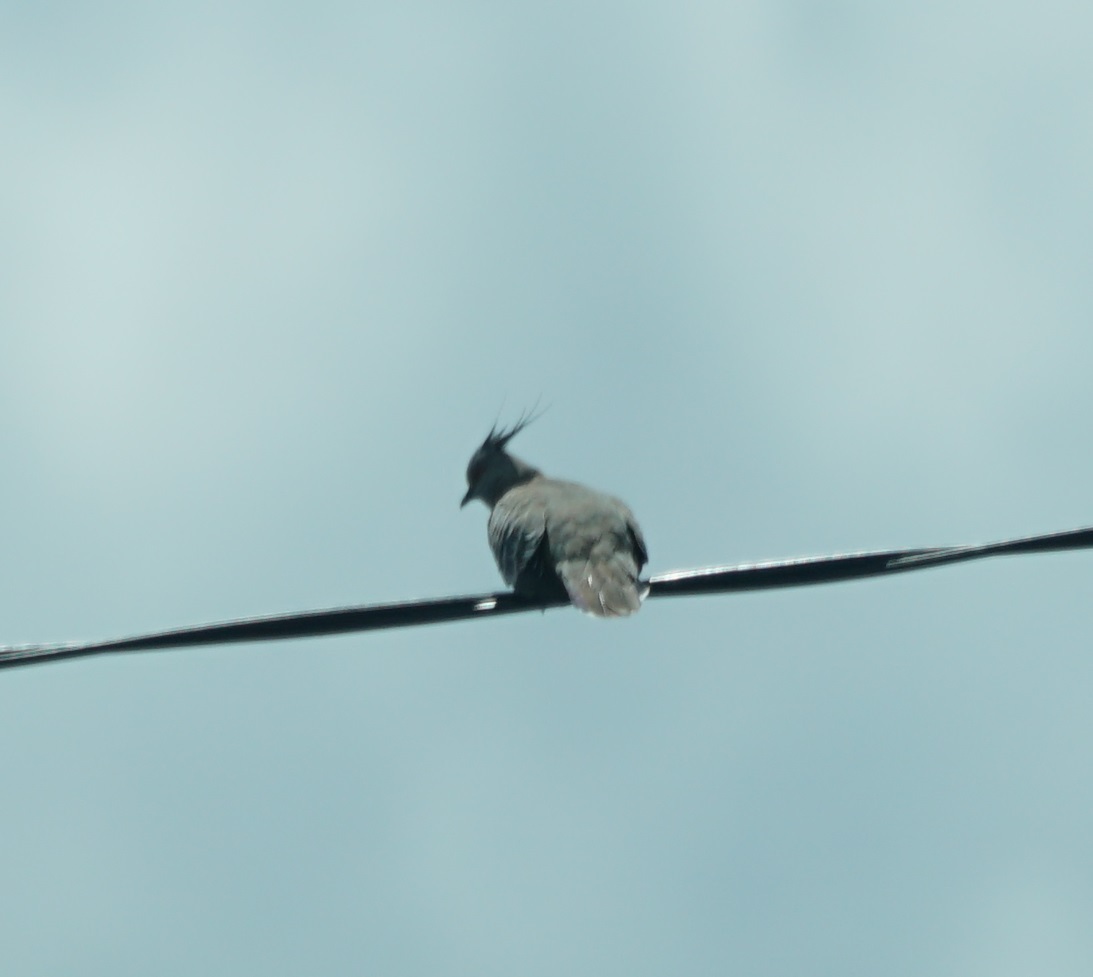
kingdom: Animalia
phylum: Chordata
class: Aves
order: Columbiformes
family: Columbidae
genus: Ocyphaps
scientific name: Ocyphaps lophotes
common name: Crested pigeon
